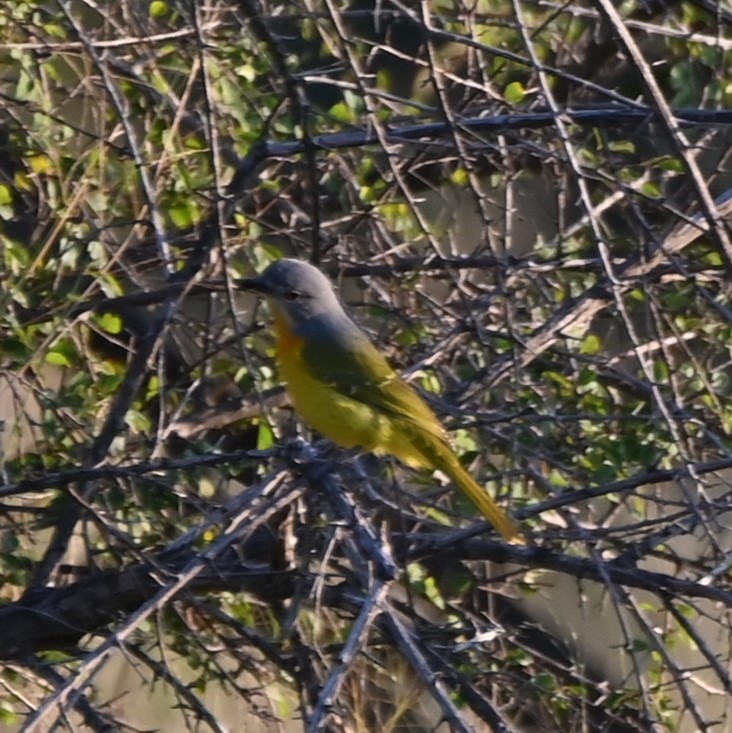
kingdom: Animalia
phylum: Chordata
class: Aves
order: Passeriformes
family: Malaconotidae
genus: Chlorophoneus
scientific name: Chlorophoneus sulfureopectus
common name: Orange-breasted bushshrike
